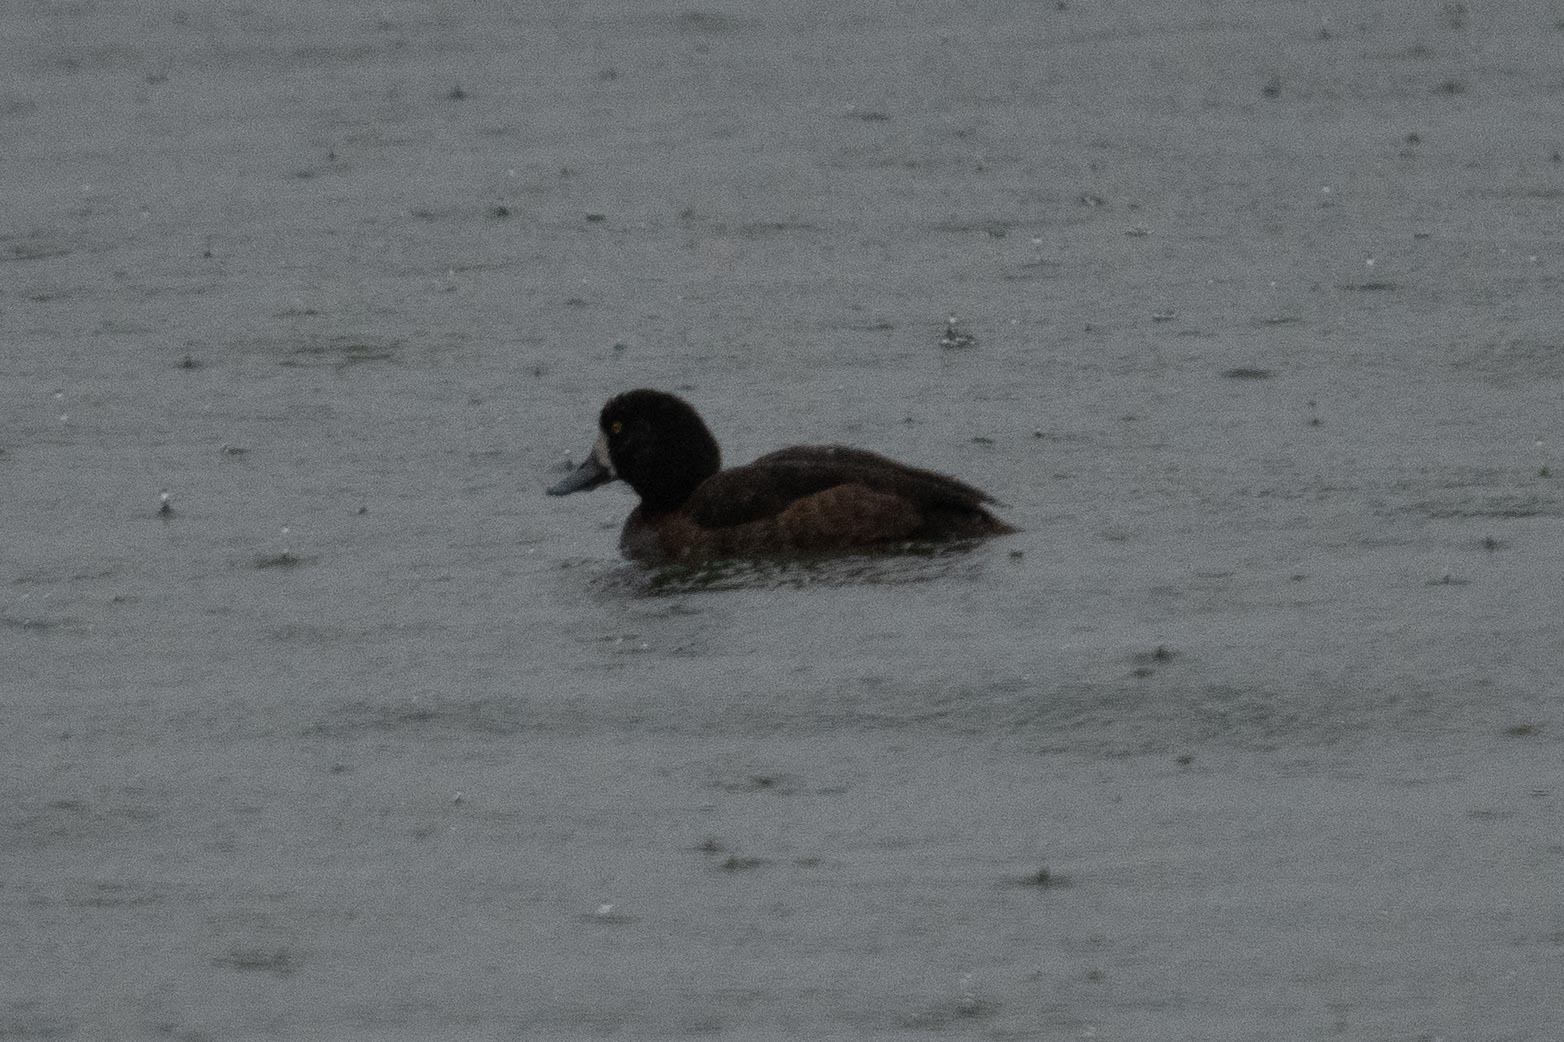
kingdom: Animalia
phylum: Chordata
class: Aves
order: Anseriformes
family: Anatidae
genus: Aythya
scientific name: Aythya marila
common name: Greater scaup
